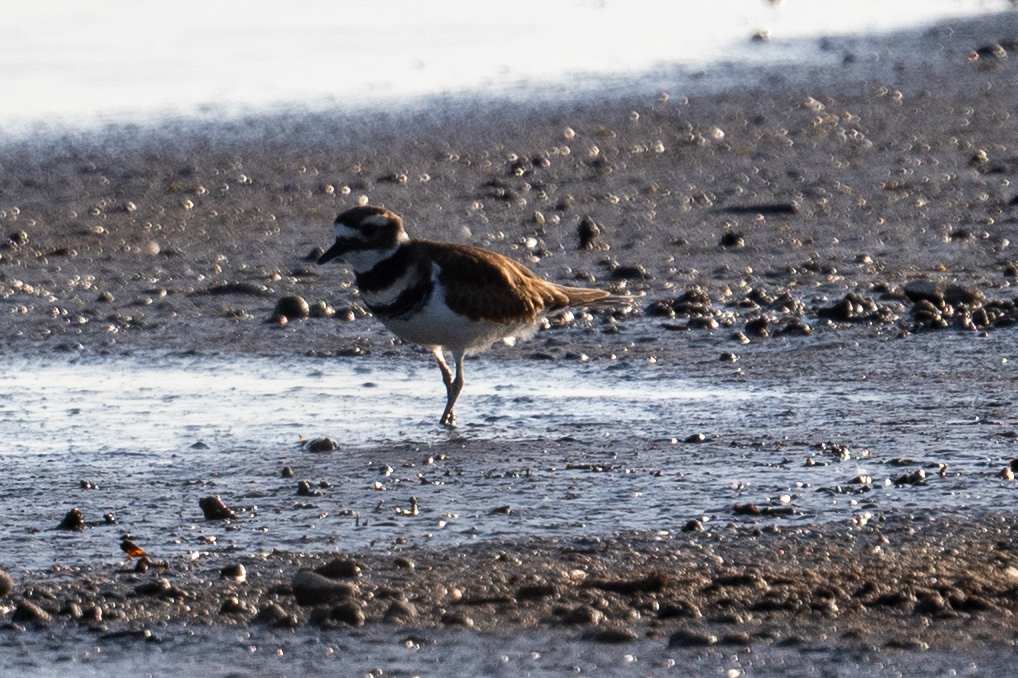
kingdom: Animalia
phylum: Chordata
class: Aves
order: Charadriiformes
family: Charadriidae
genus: Charadrius
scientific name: Charadrius vociferus
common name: Killdeer
